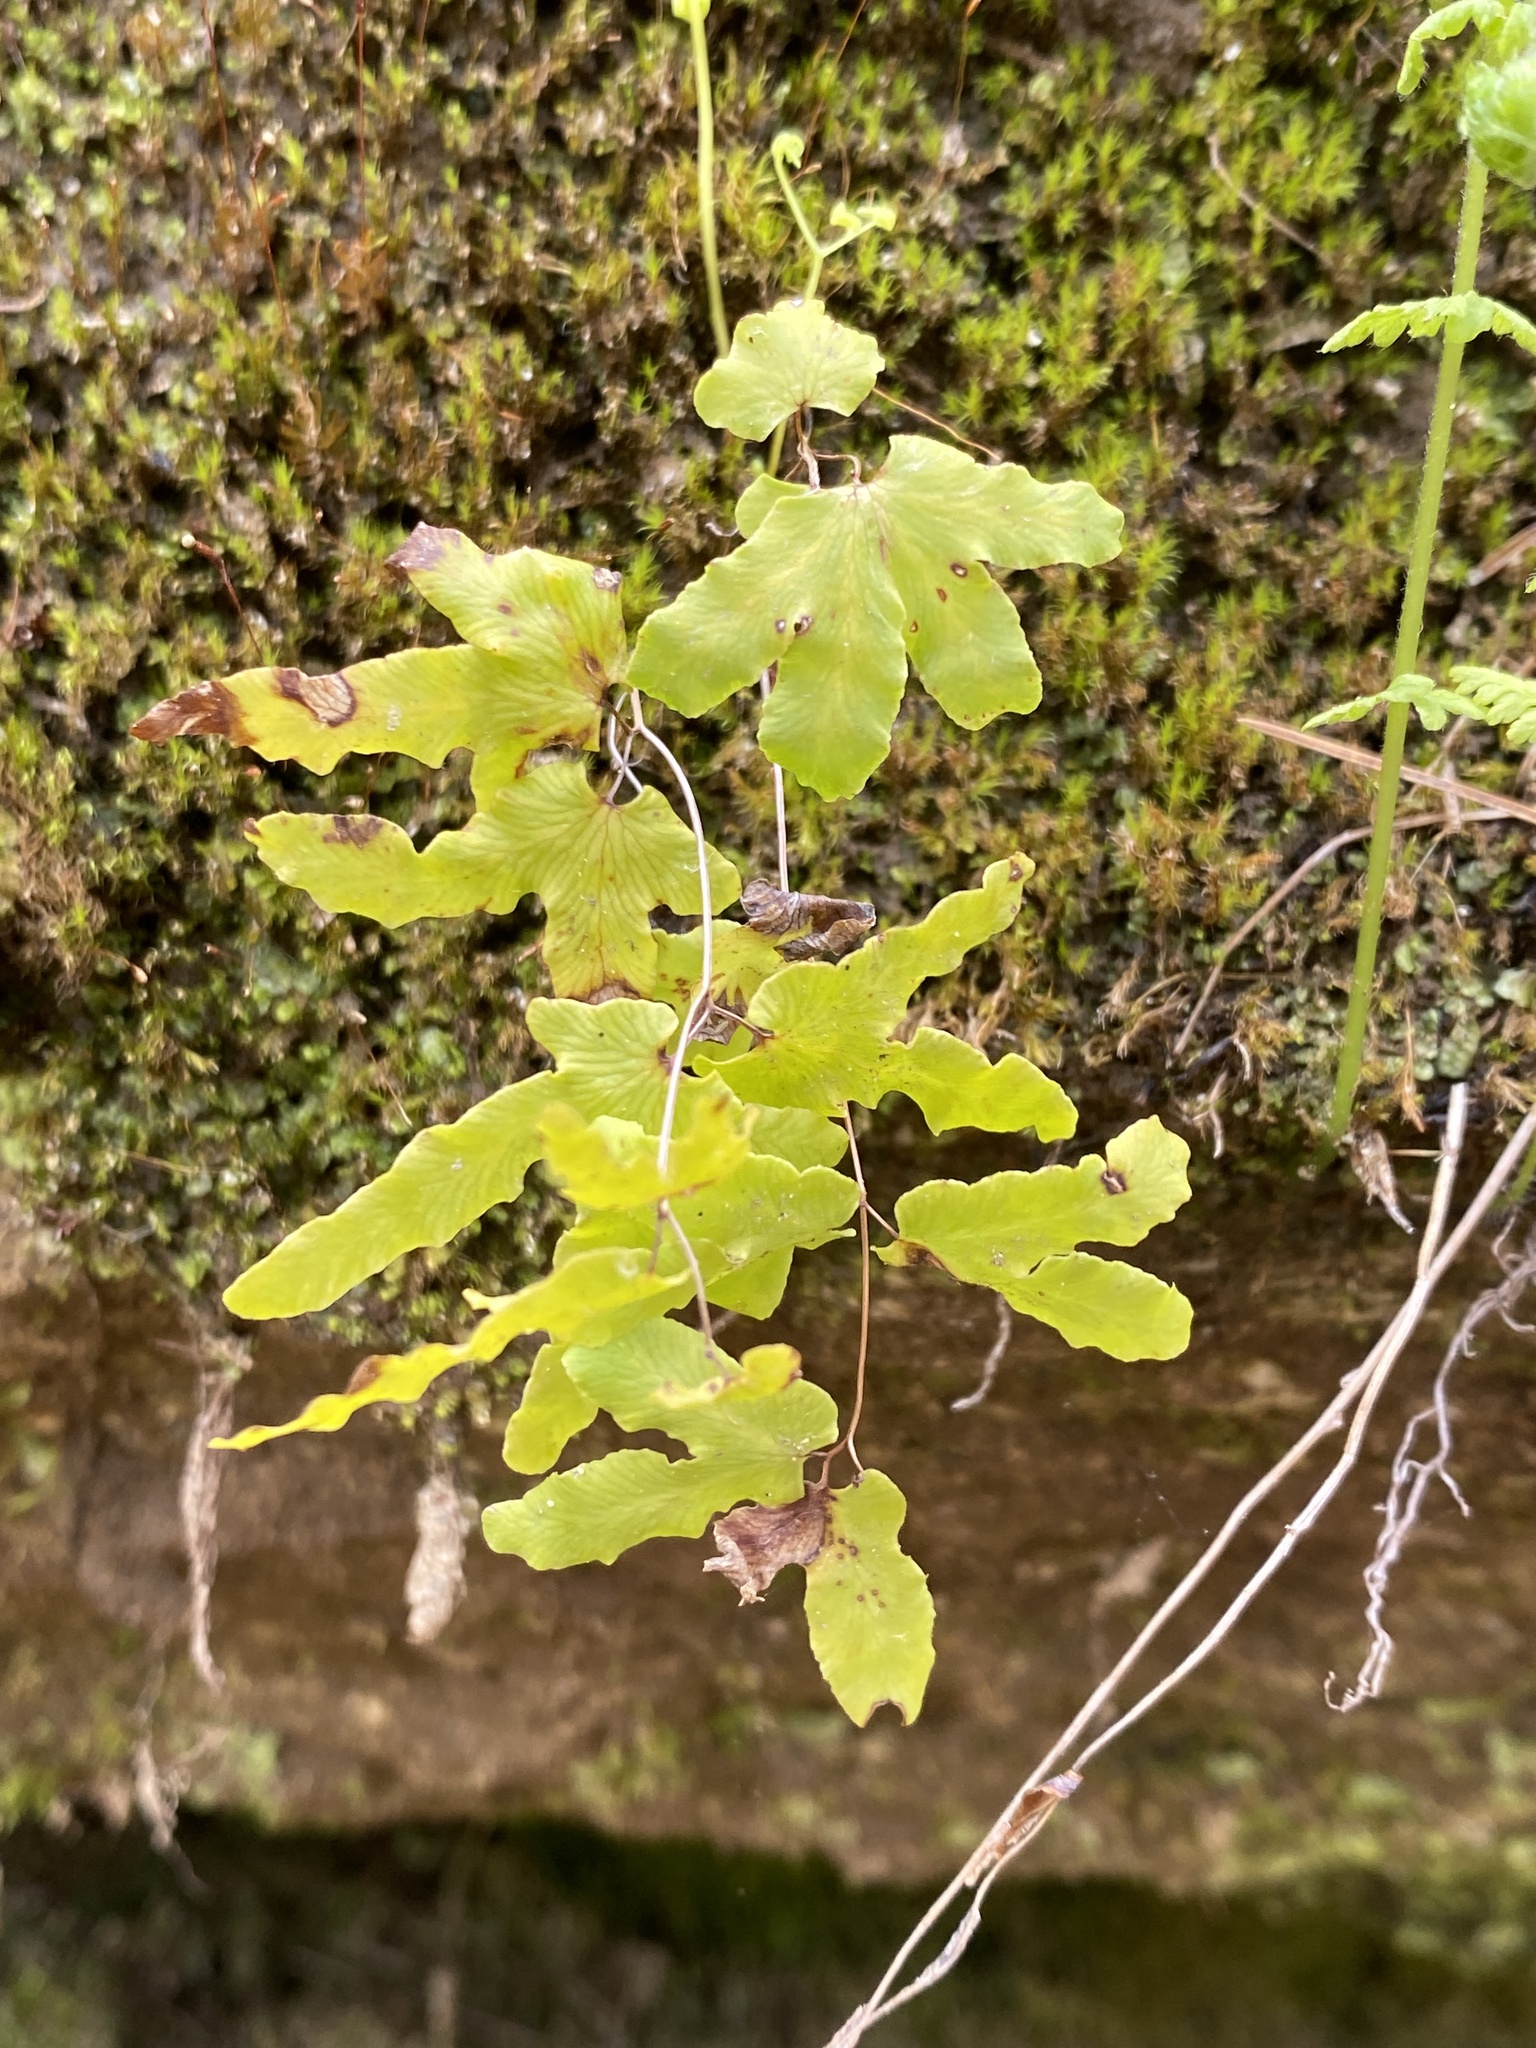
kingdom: Plantae
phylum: Tracheophyta
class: Polypodiopsida
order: Schizaeales
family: Lygodiaceae
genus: Lygodium
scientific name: Lygodium palmatum
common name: American climbing fern
